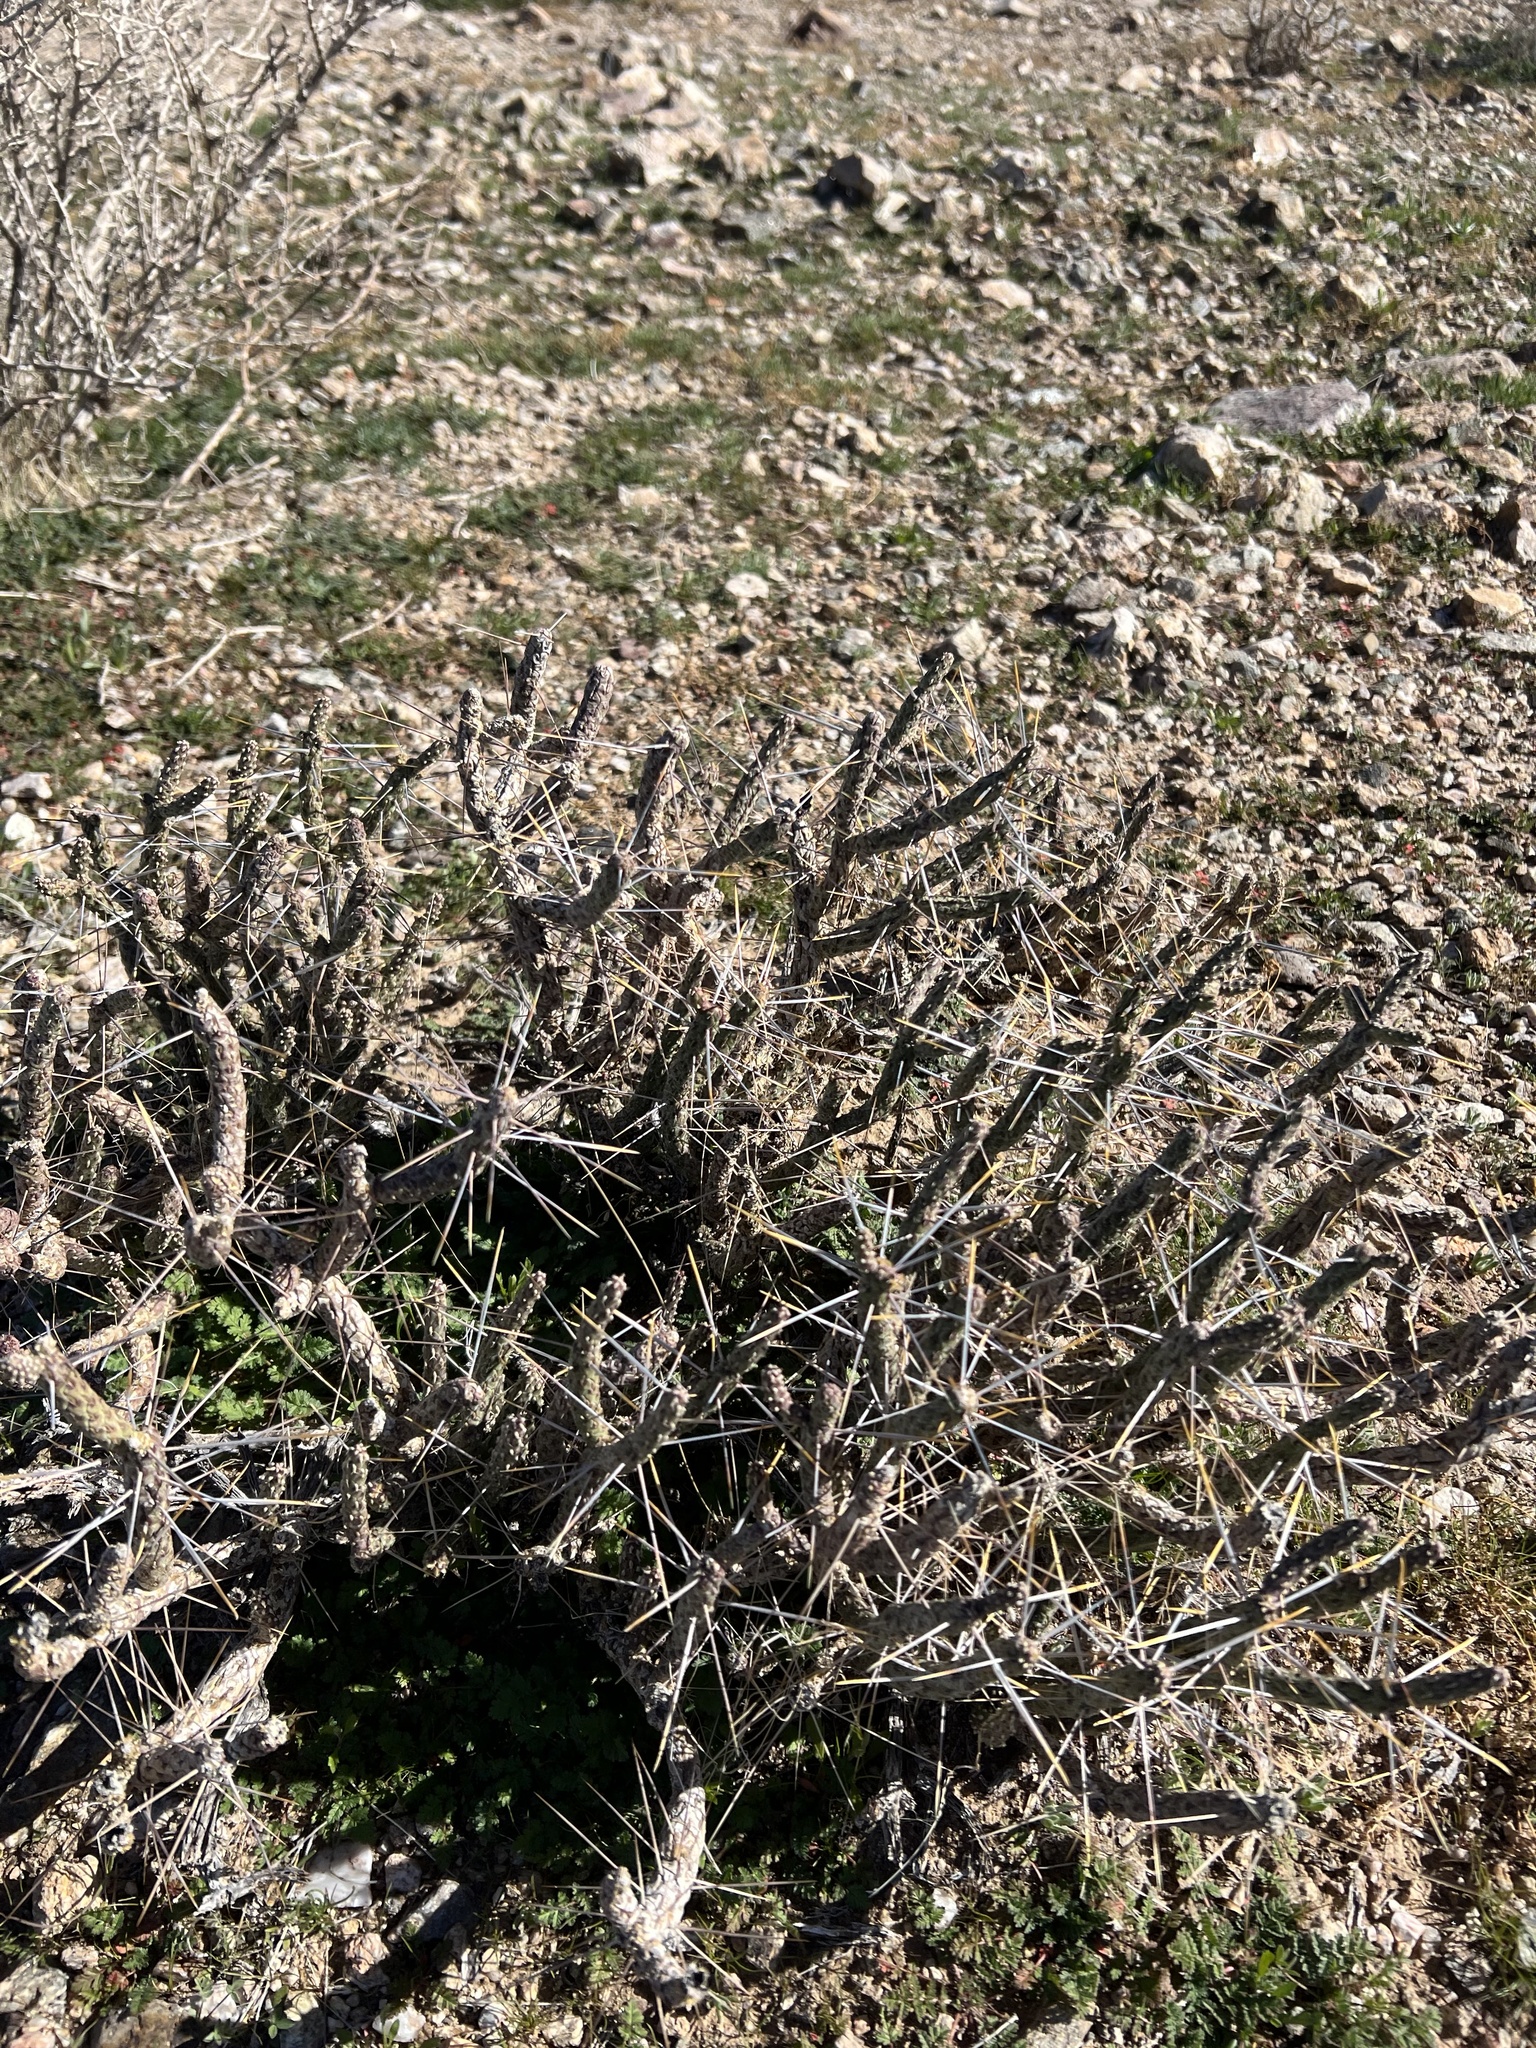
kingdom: Plantae
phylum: Tracheophyta
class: Magnoliopsida
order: Caryophyllales
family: Cactaceae
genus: Cylindropuntia
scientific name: Cylindropuntia ramosissima
